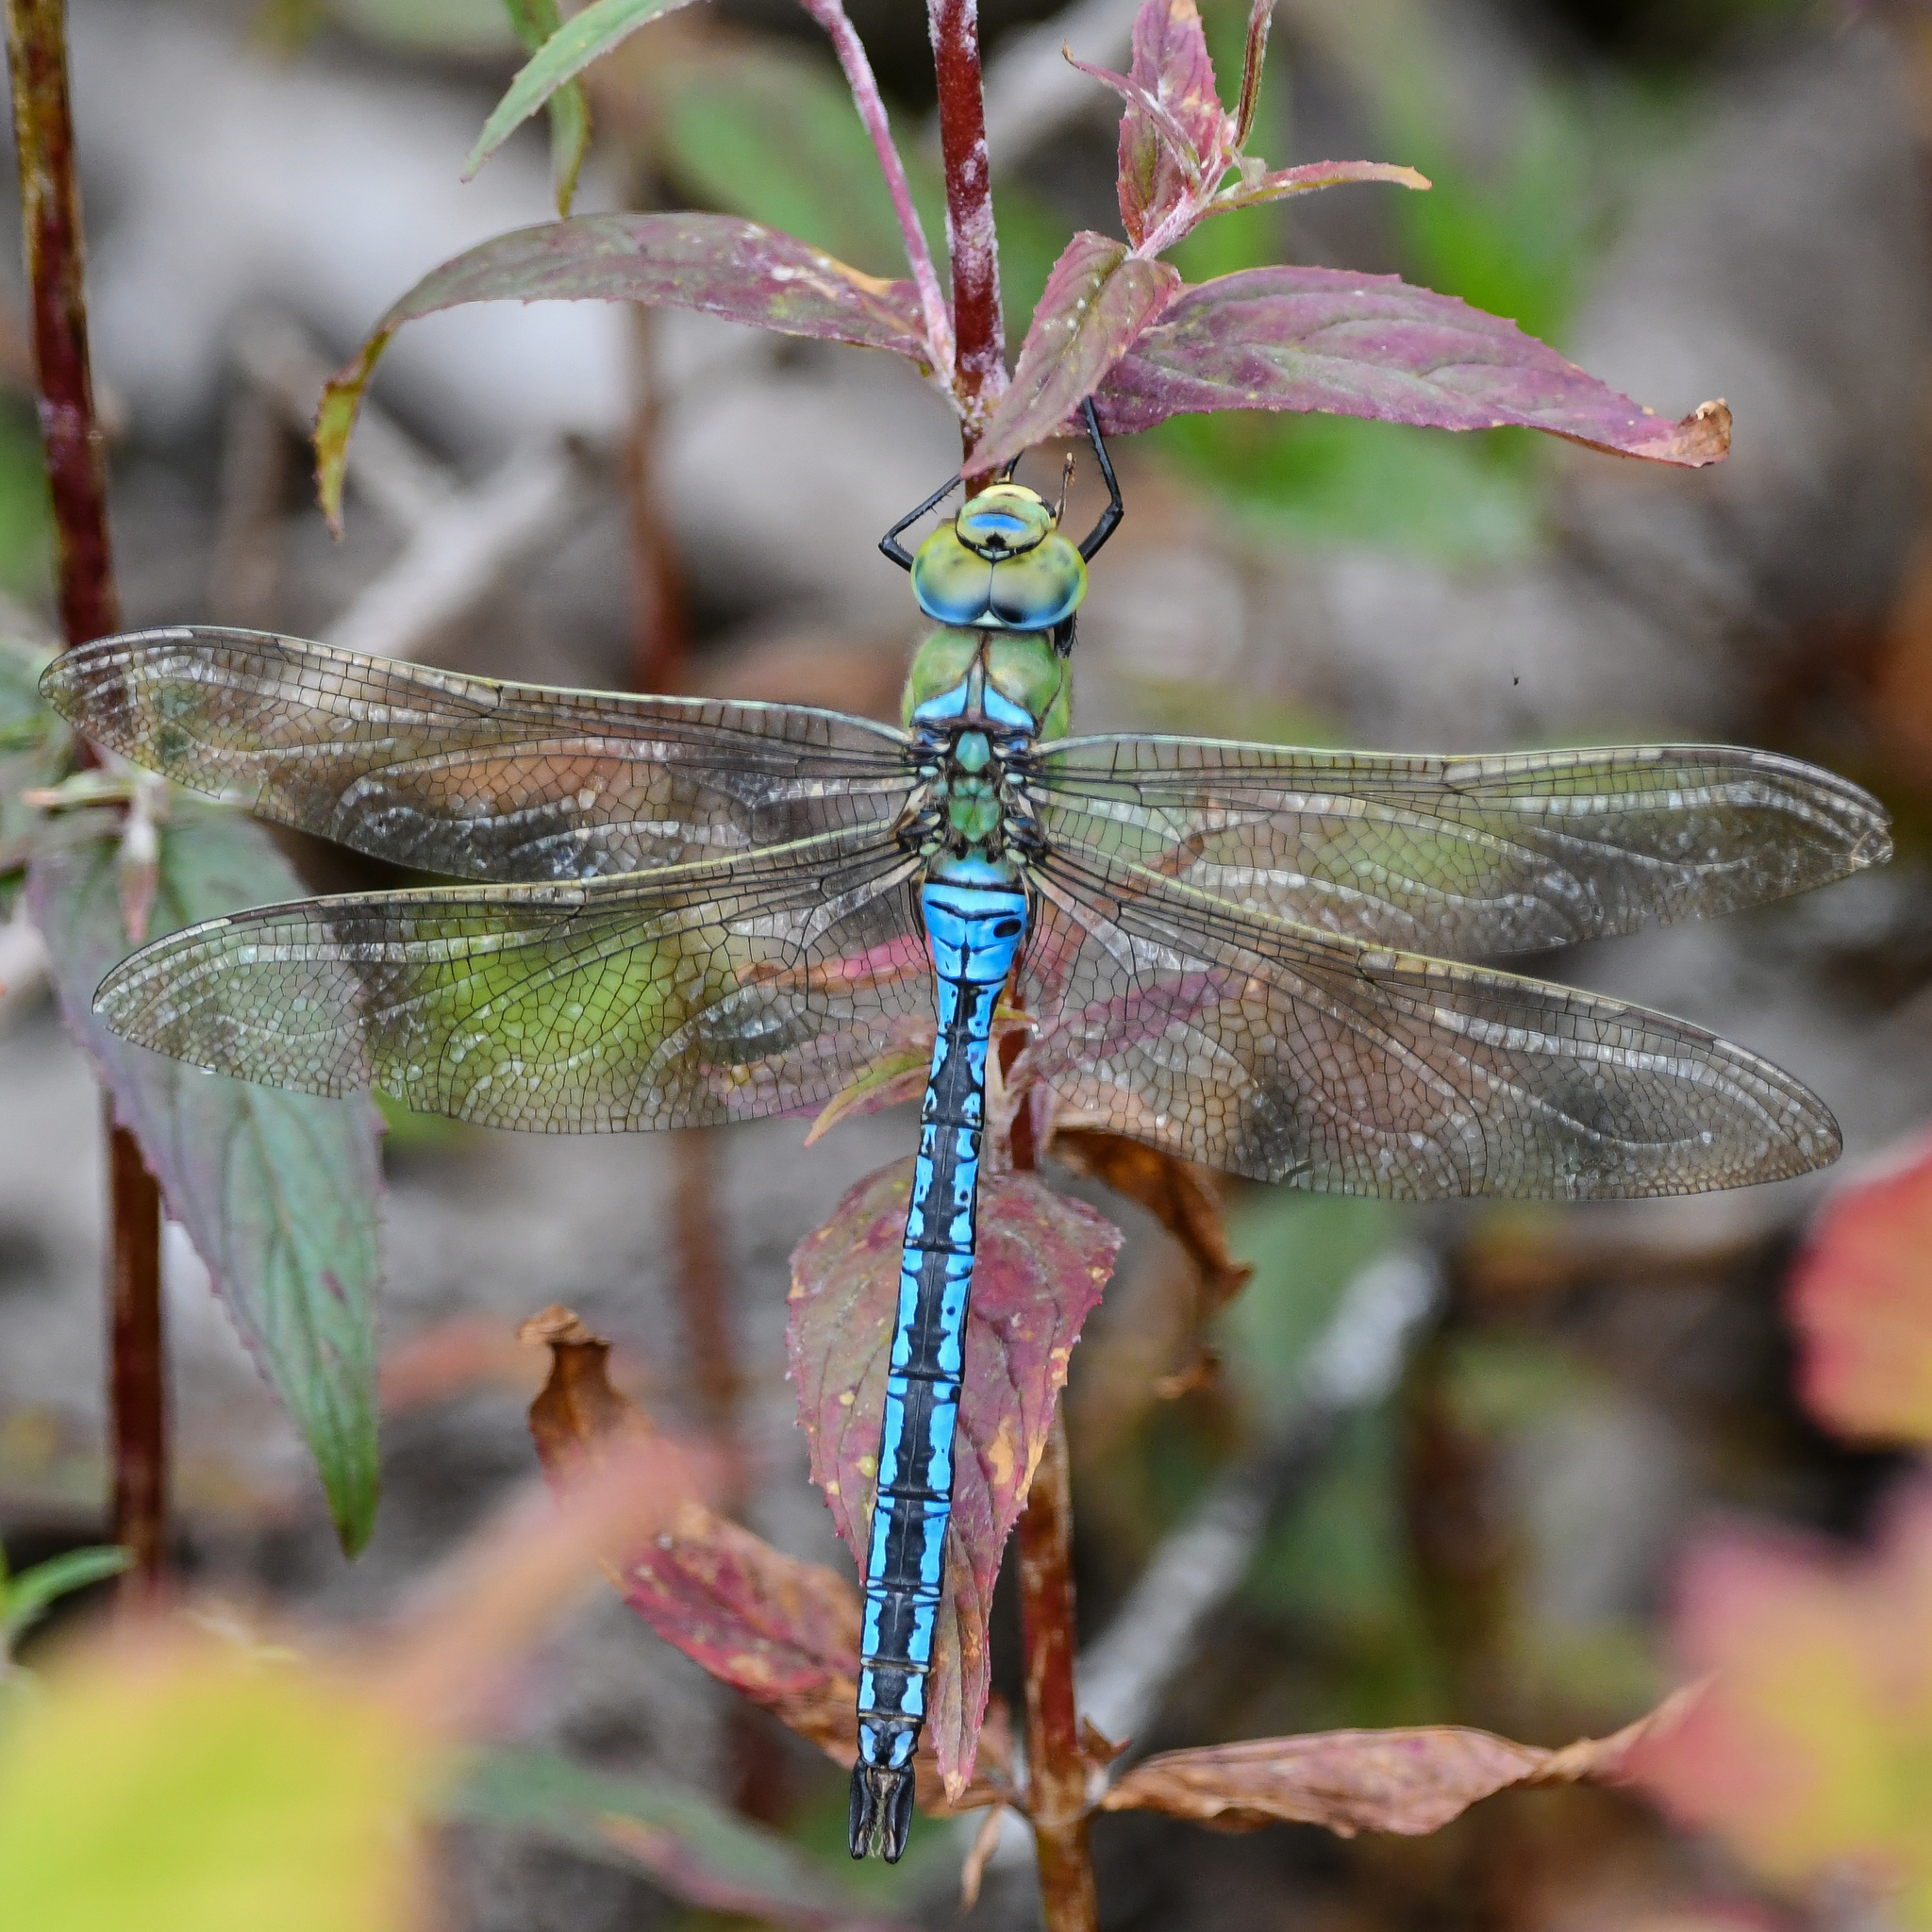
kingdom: Animalia
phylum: Arthropoda
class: Insecta
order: Odonata
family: Aeshnidae
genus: Anax
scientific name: Anax imperator
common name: Emperor dragonfly
